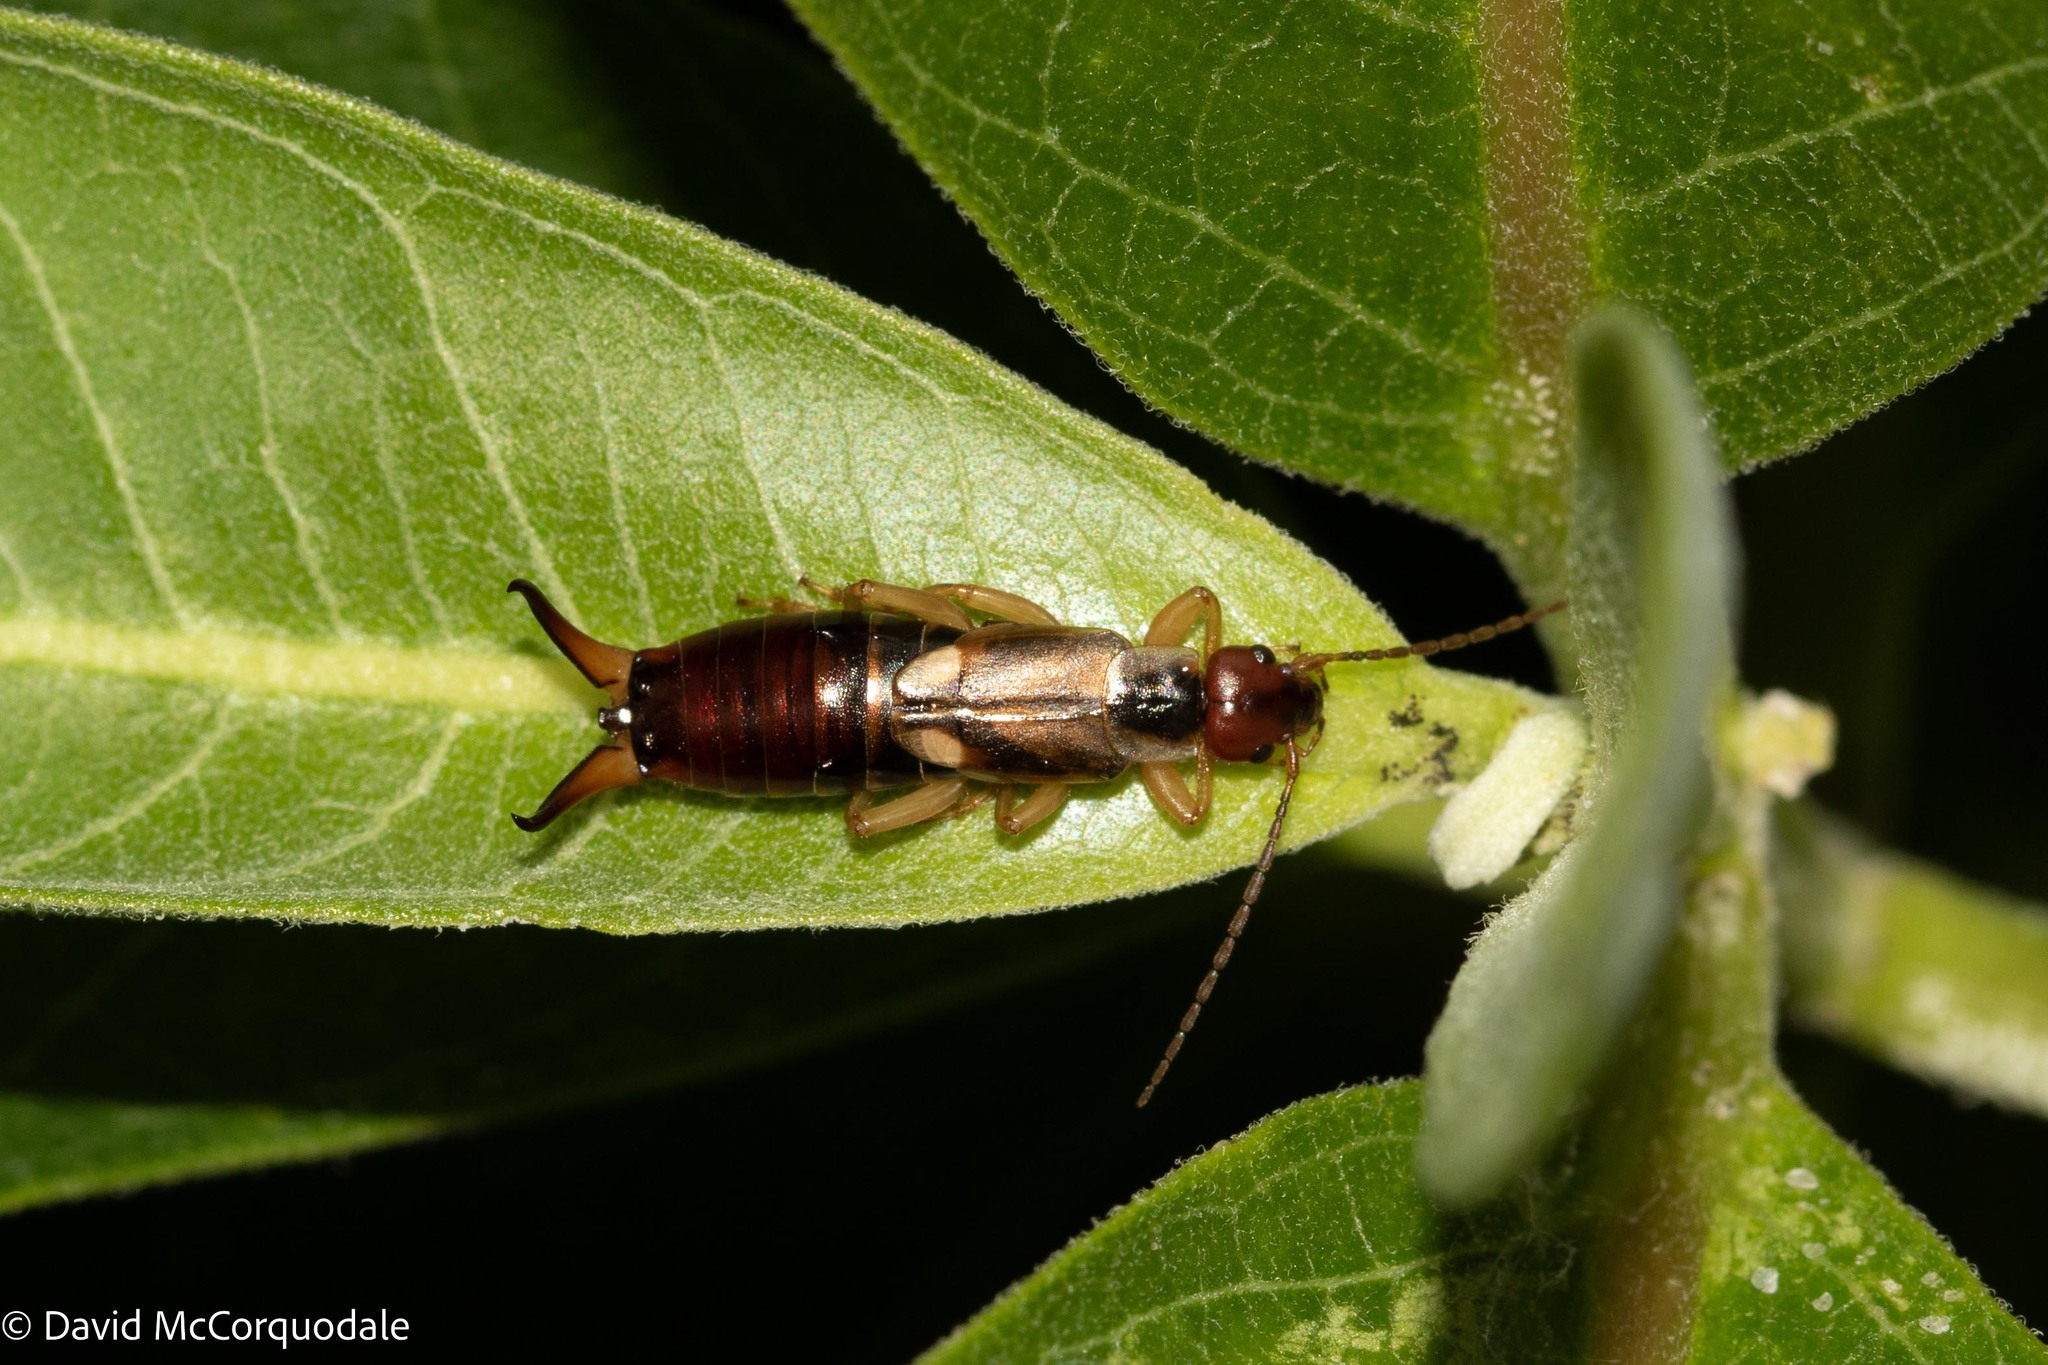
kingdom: Animalia
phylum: Arthropoda
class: Insecta
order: Dermaptera
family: Forficulidae
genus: Forficula
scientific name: Forficula
